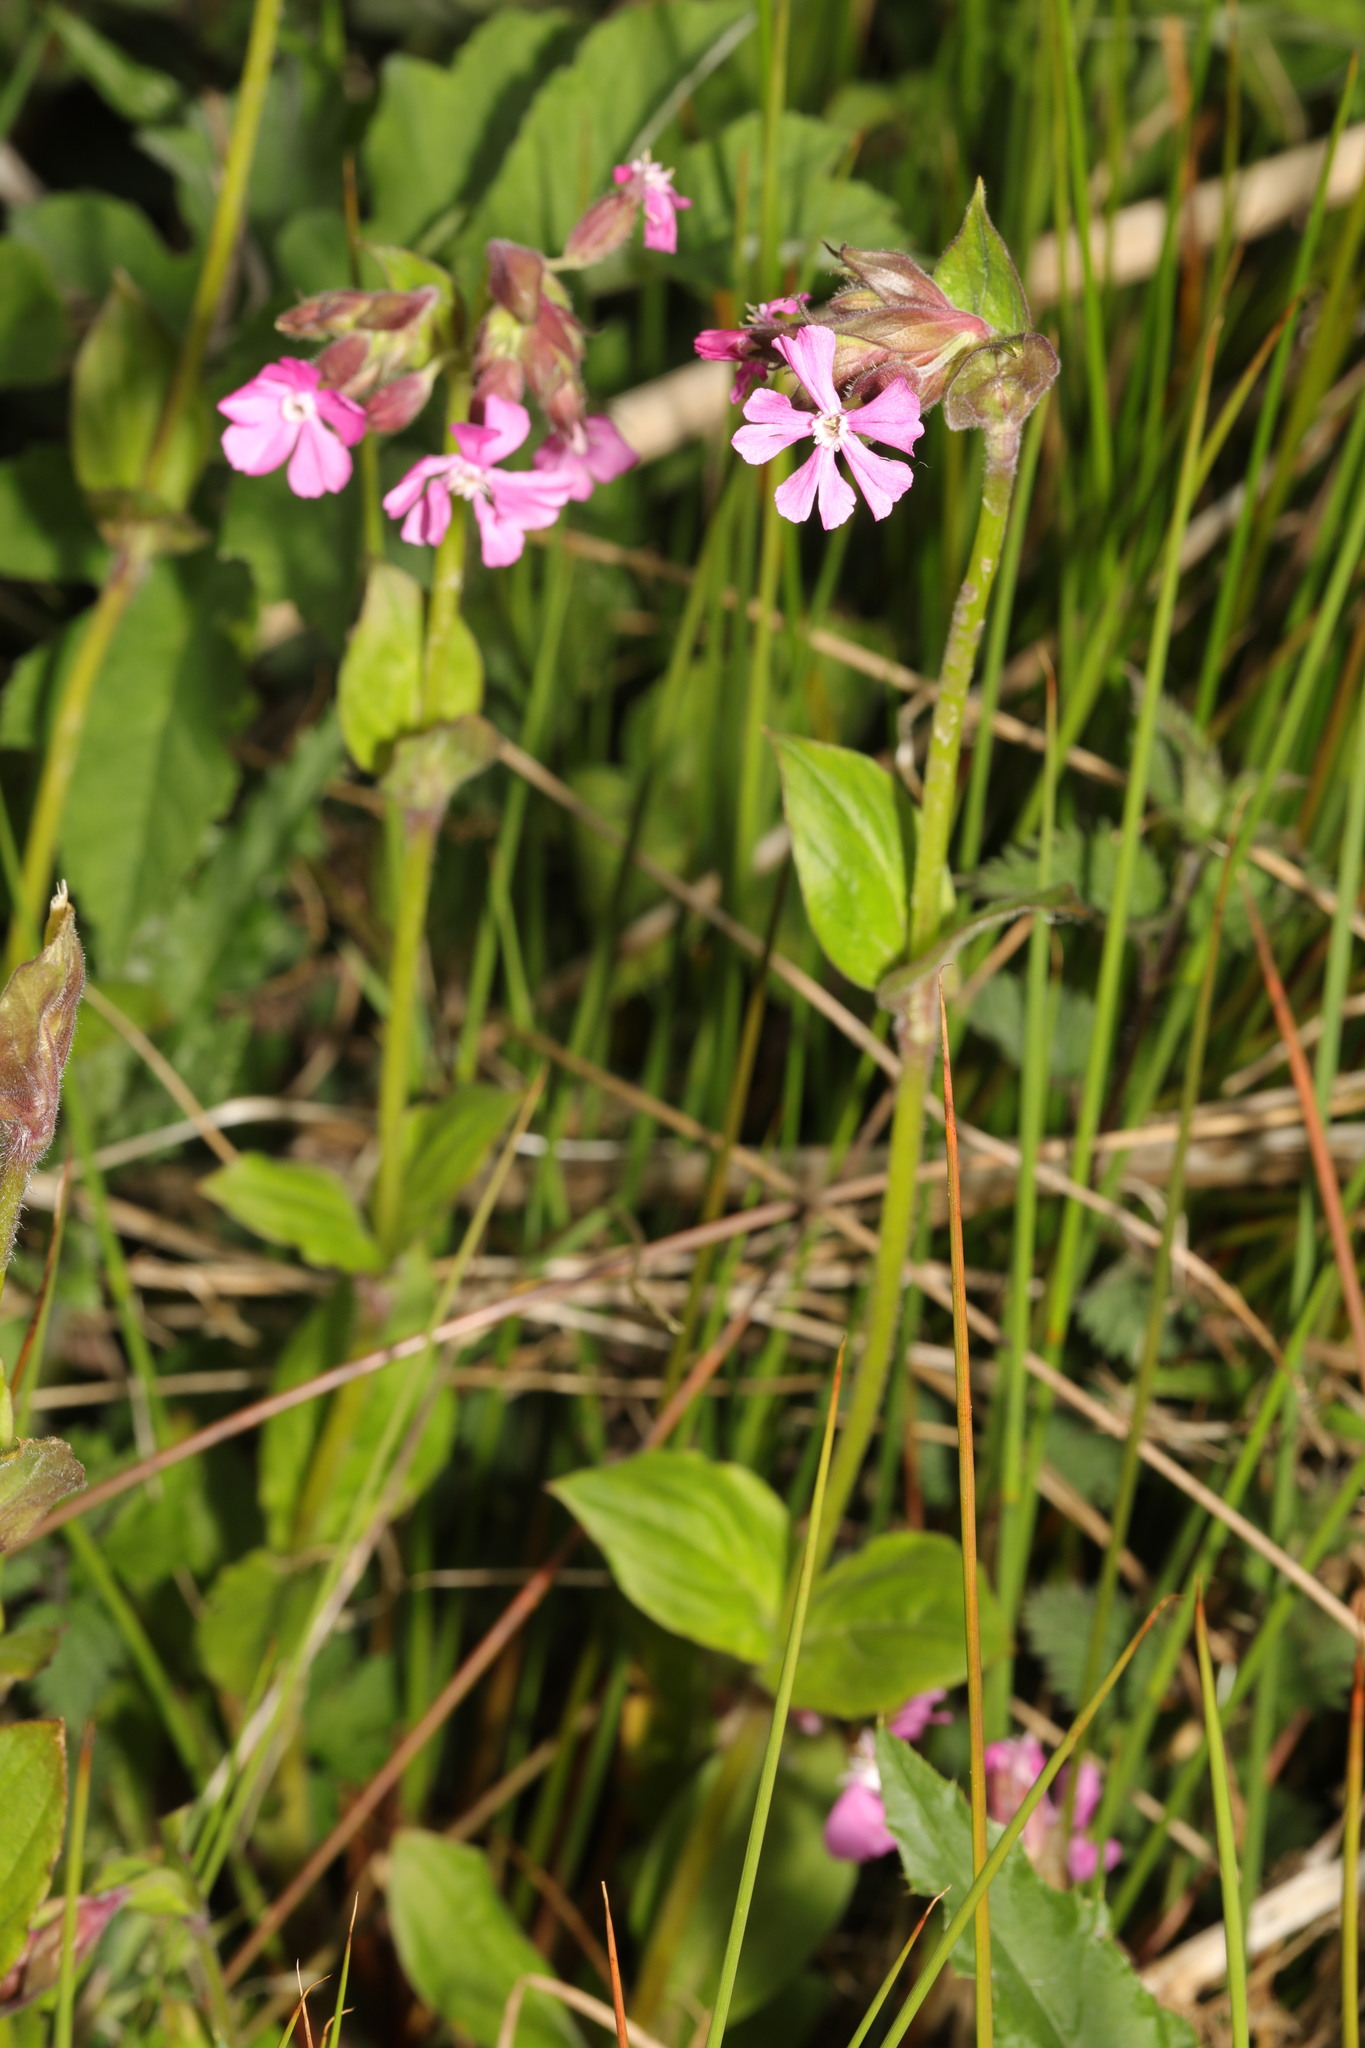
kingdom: Plantae
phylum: Tracheophyta
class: Magnoliopsida
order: Caryophyllales
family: Caryophyllaceae
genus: Silene
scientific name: Silene dioica
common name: Red campion
